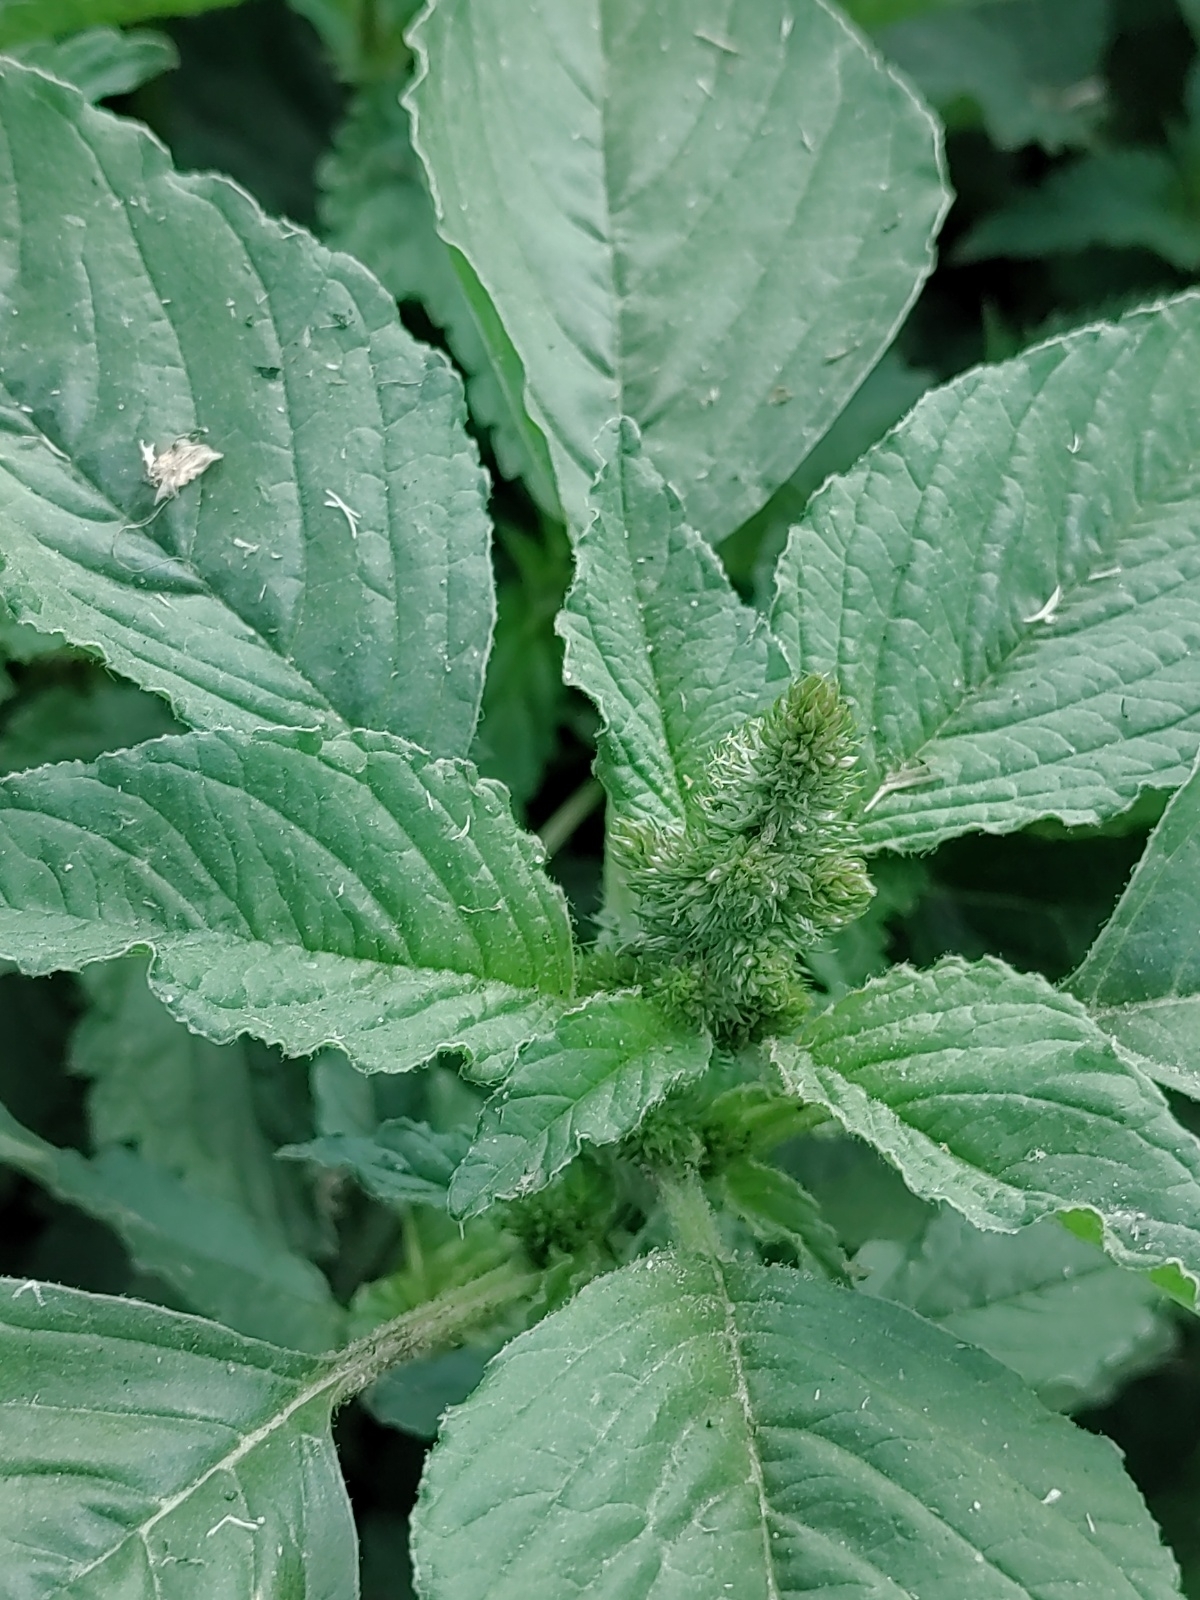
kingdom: Plantae
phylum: Tracheophyta
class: Magnoliopsida
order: Caryophyllales
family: Amaranthaceae
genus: Amaranthus
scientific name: Amaranthus retroflexus
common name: Redroot amaranth
